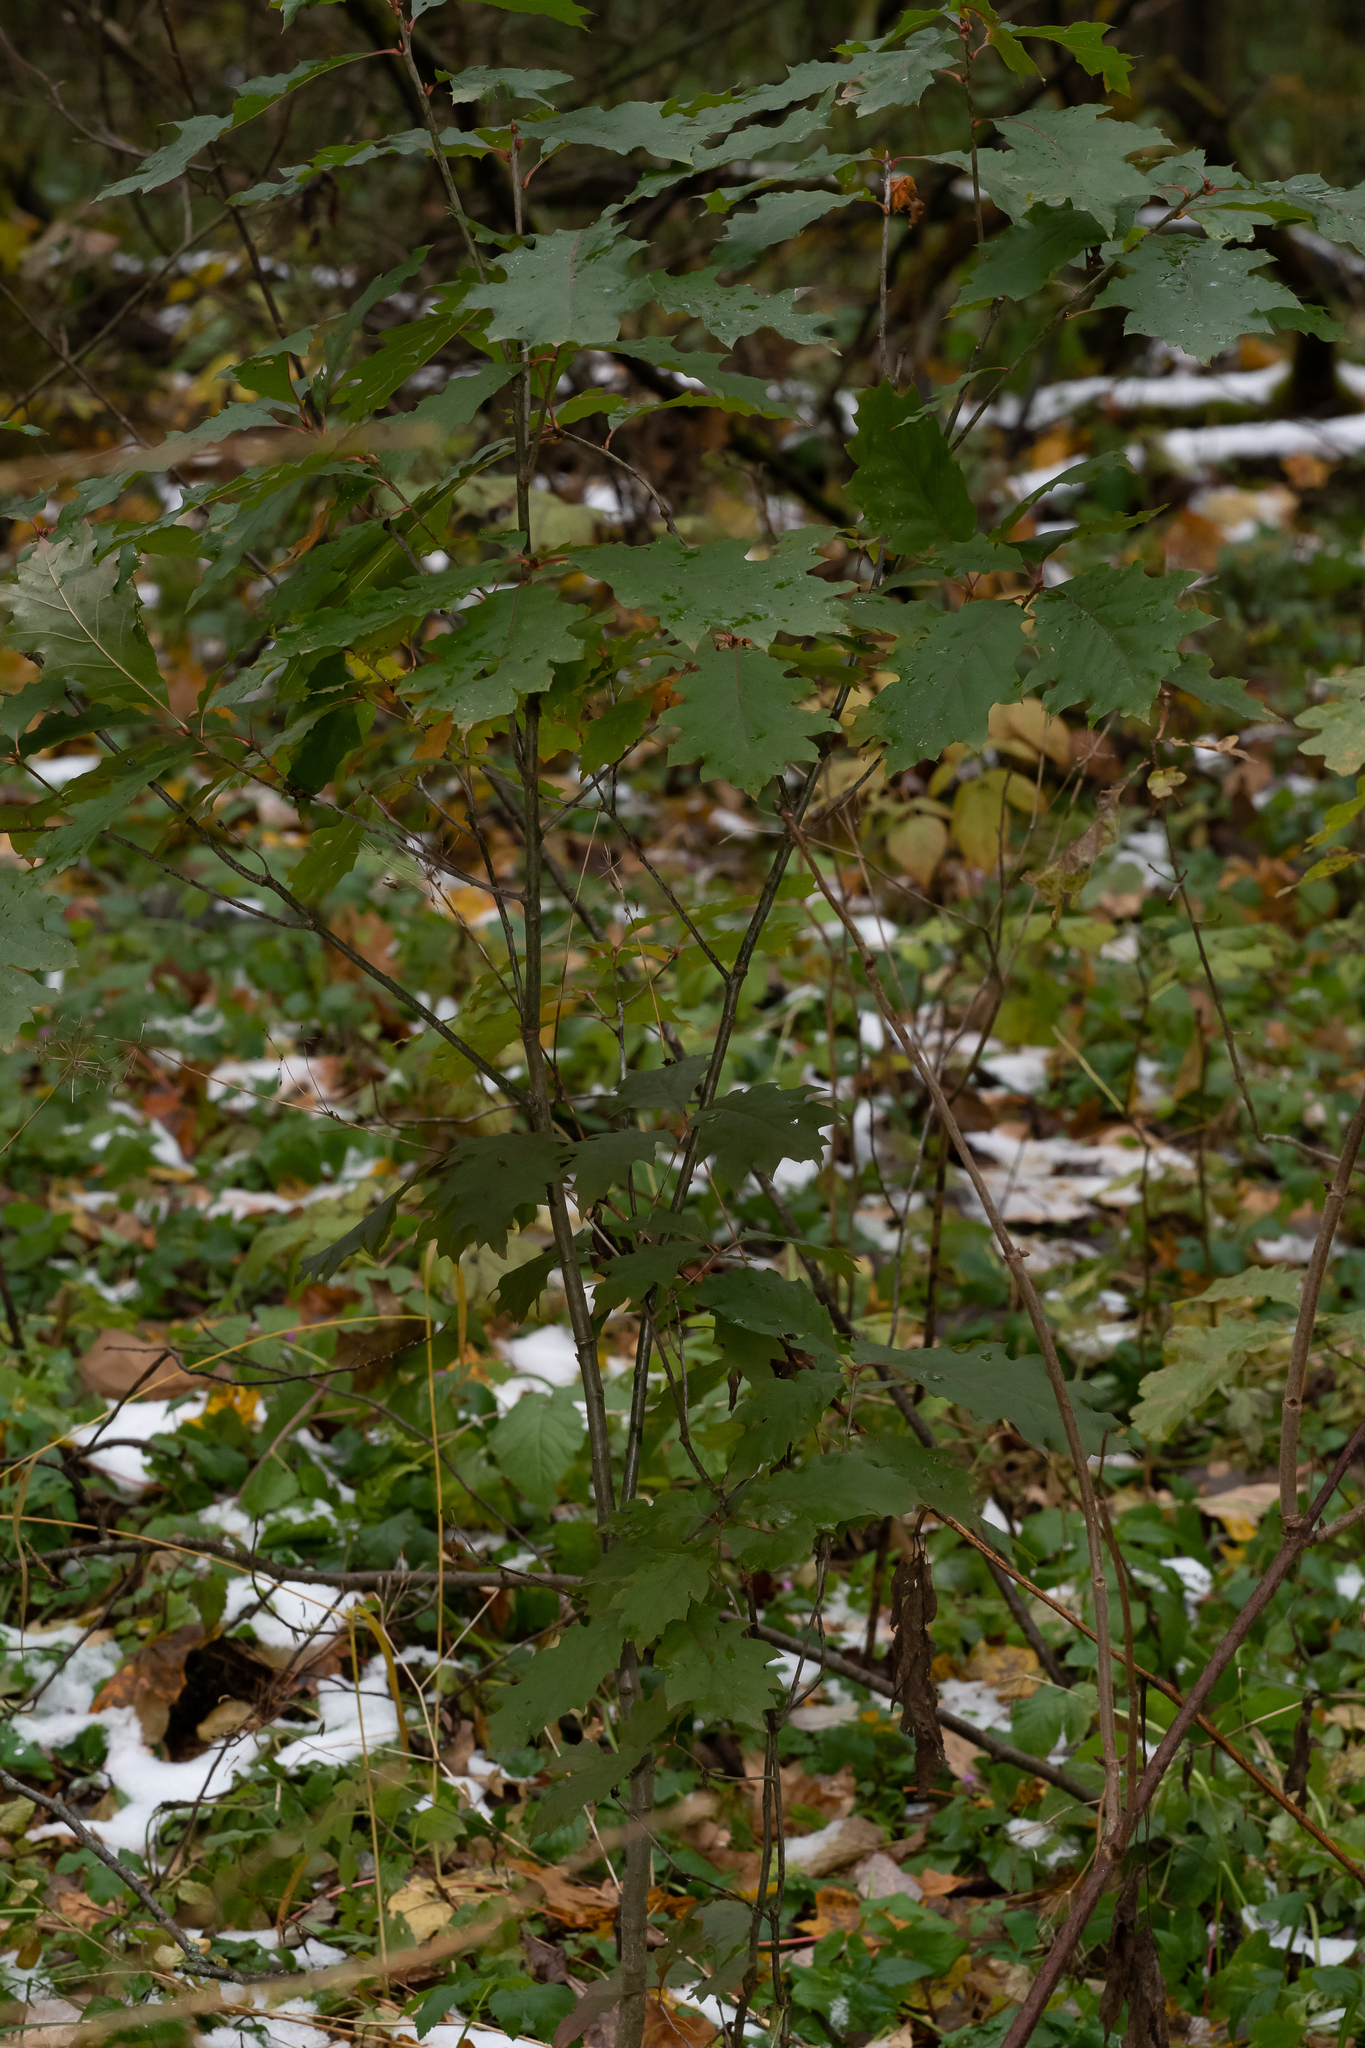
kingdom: Plantae
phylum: Tracheophyta
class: Magnoliopsida
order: Fagales
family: Fagaceae
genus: Quercus
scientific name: Quercus rubra
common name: Red oak
